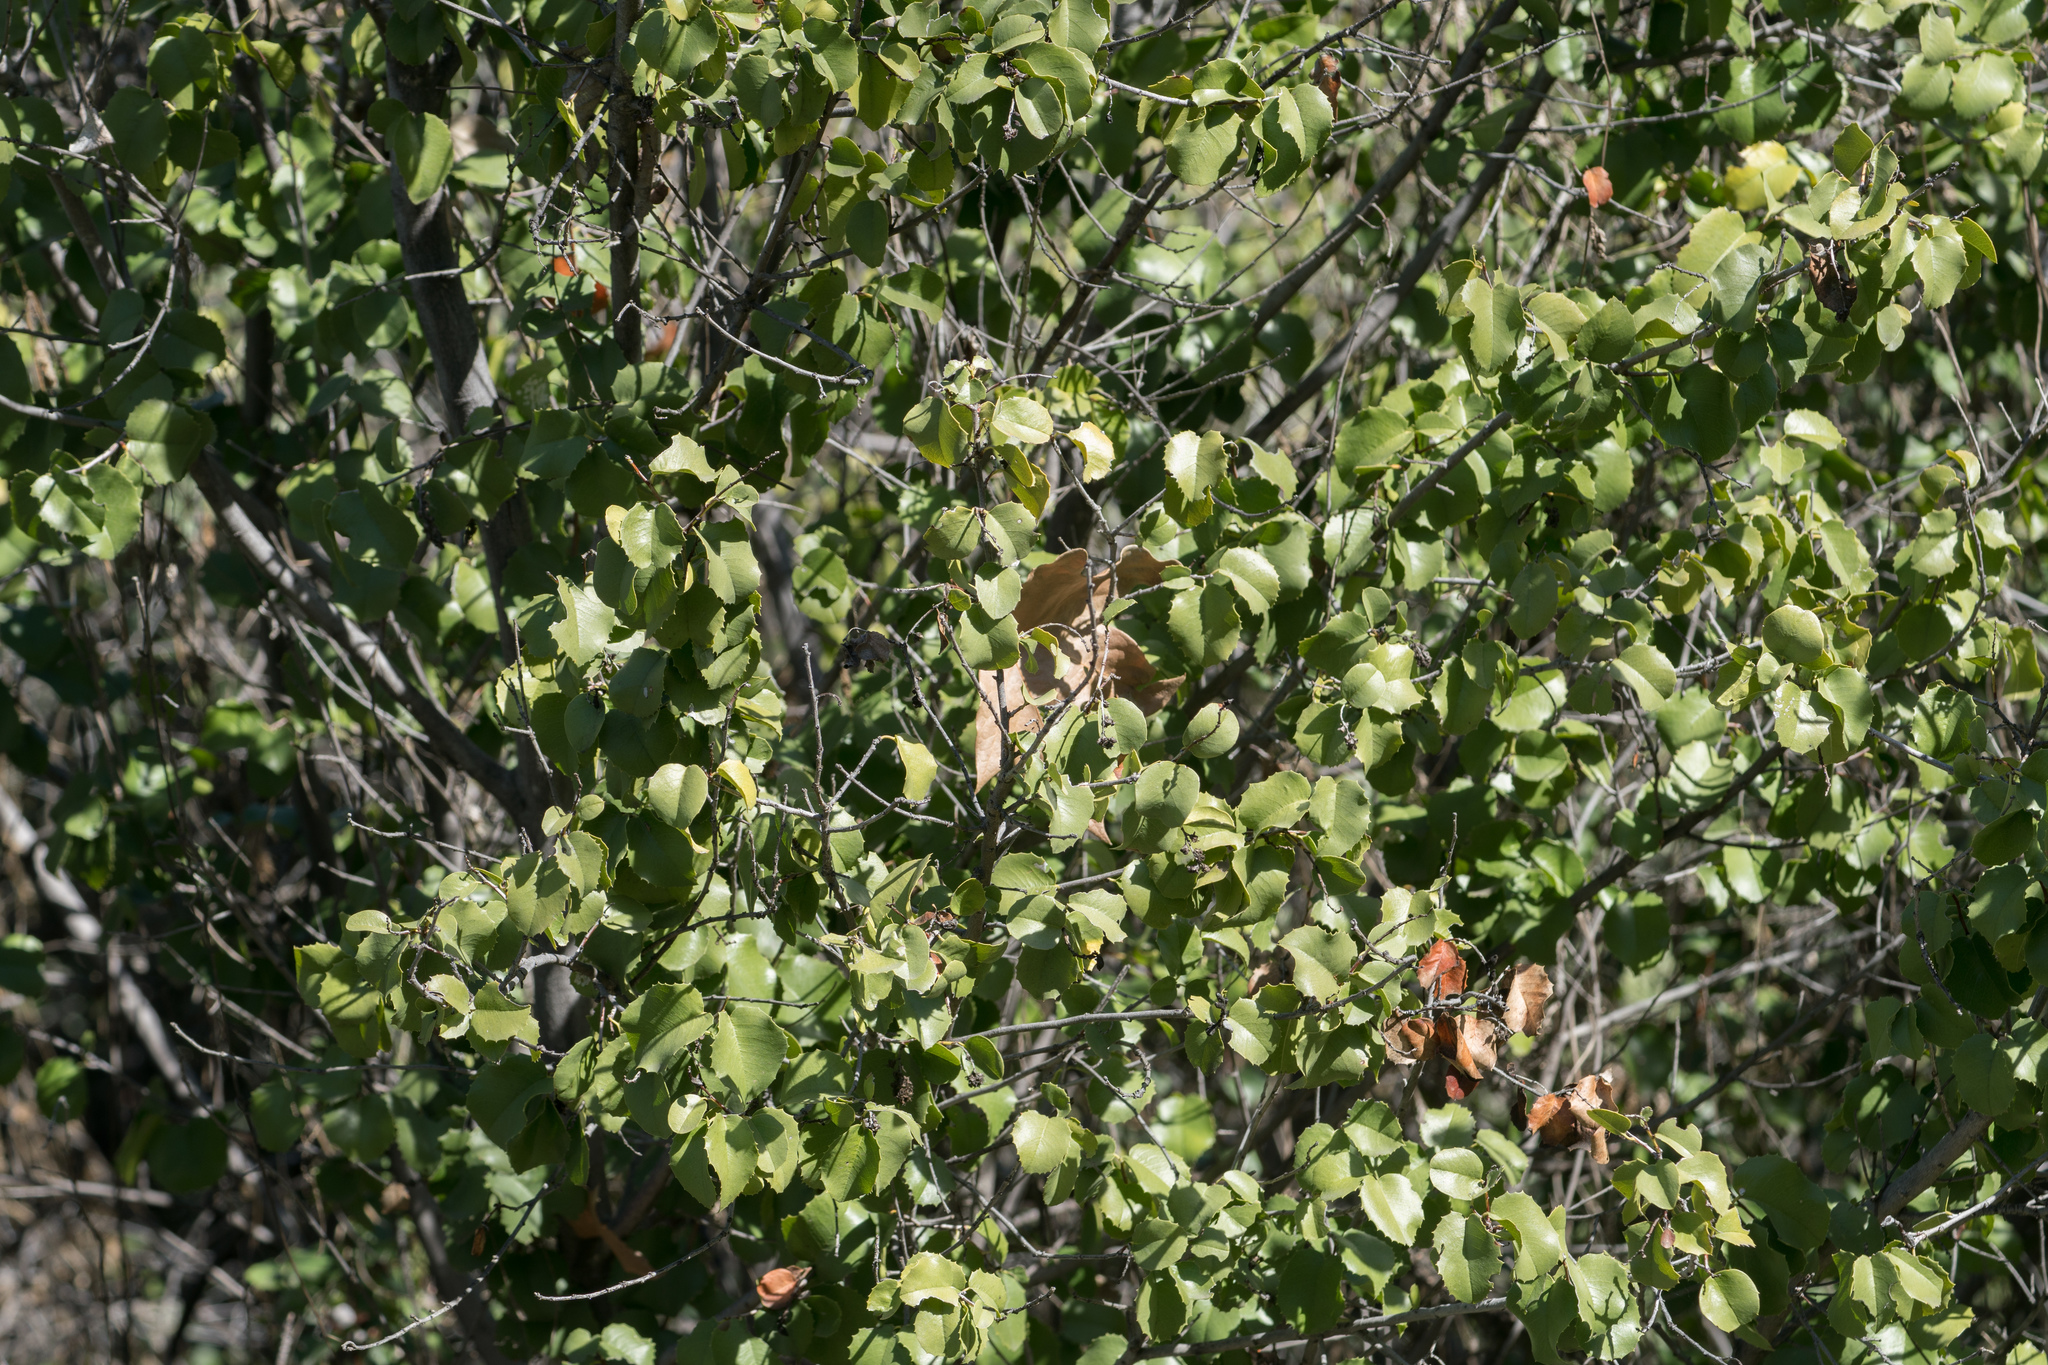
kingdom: Plantae
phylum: Tracheophyta
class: Magnoliopsida
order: Rosales
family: Rosaceae
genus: Prunus
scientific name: Prunus ilicifolia
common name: Hollyleaf cherry
